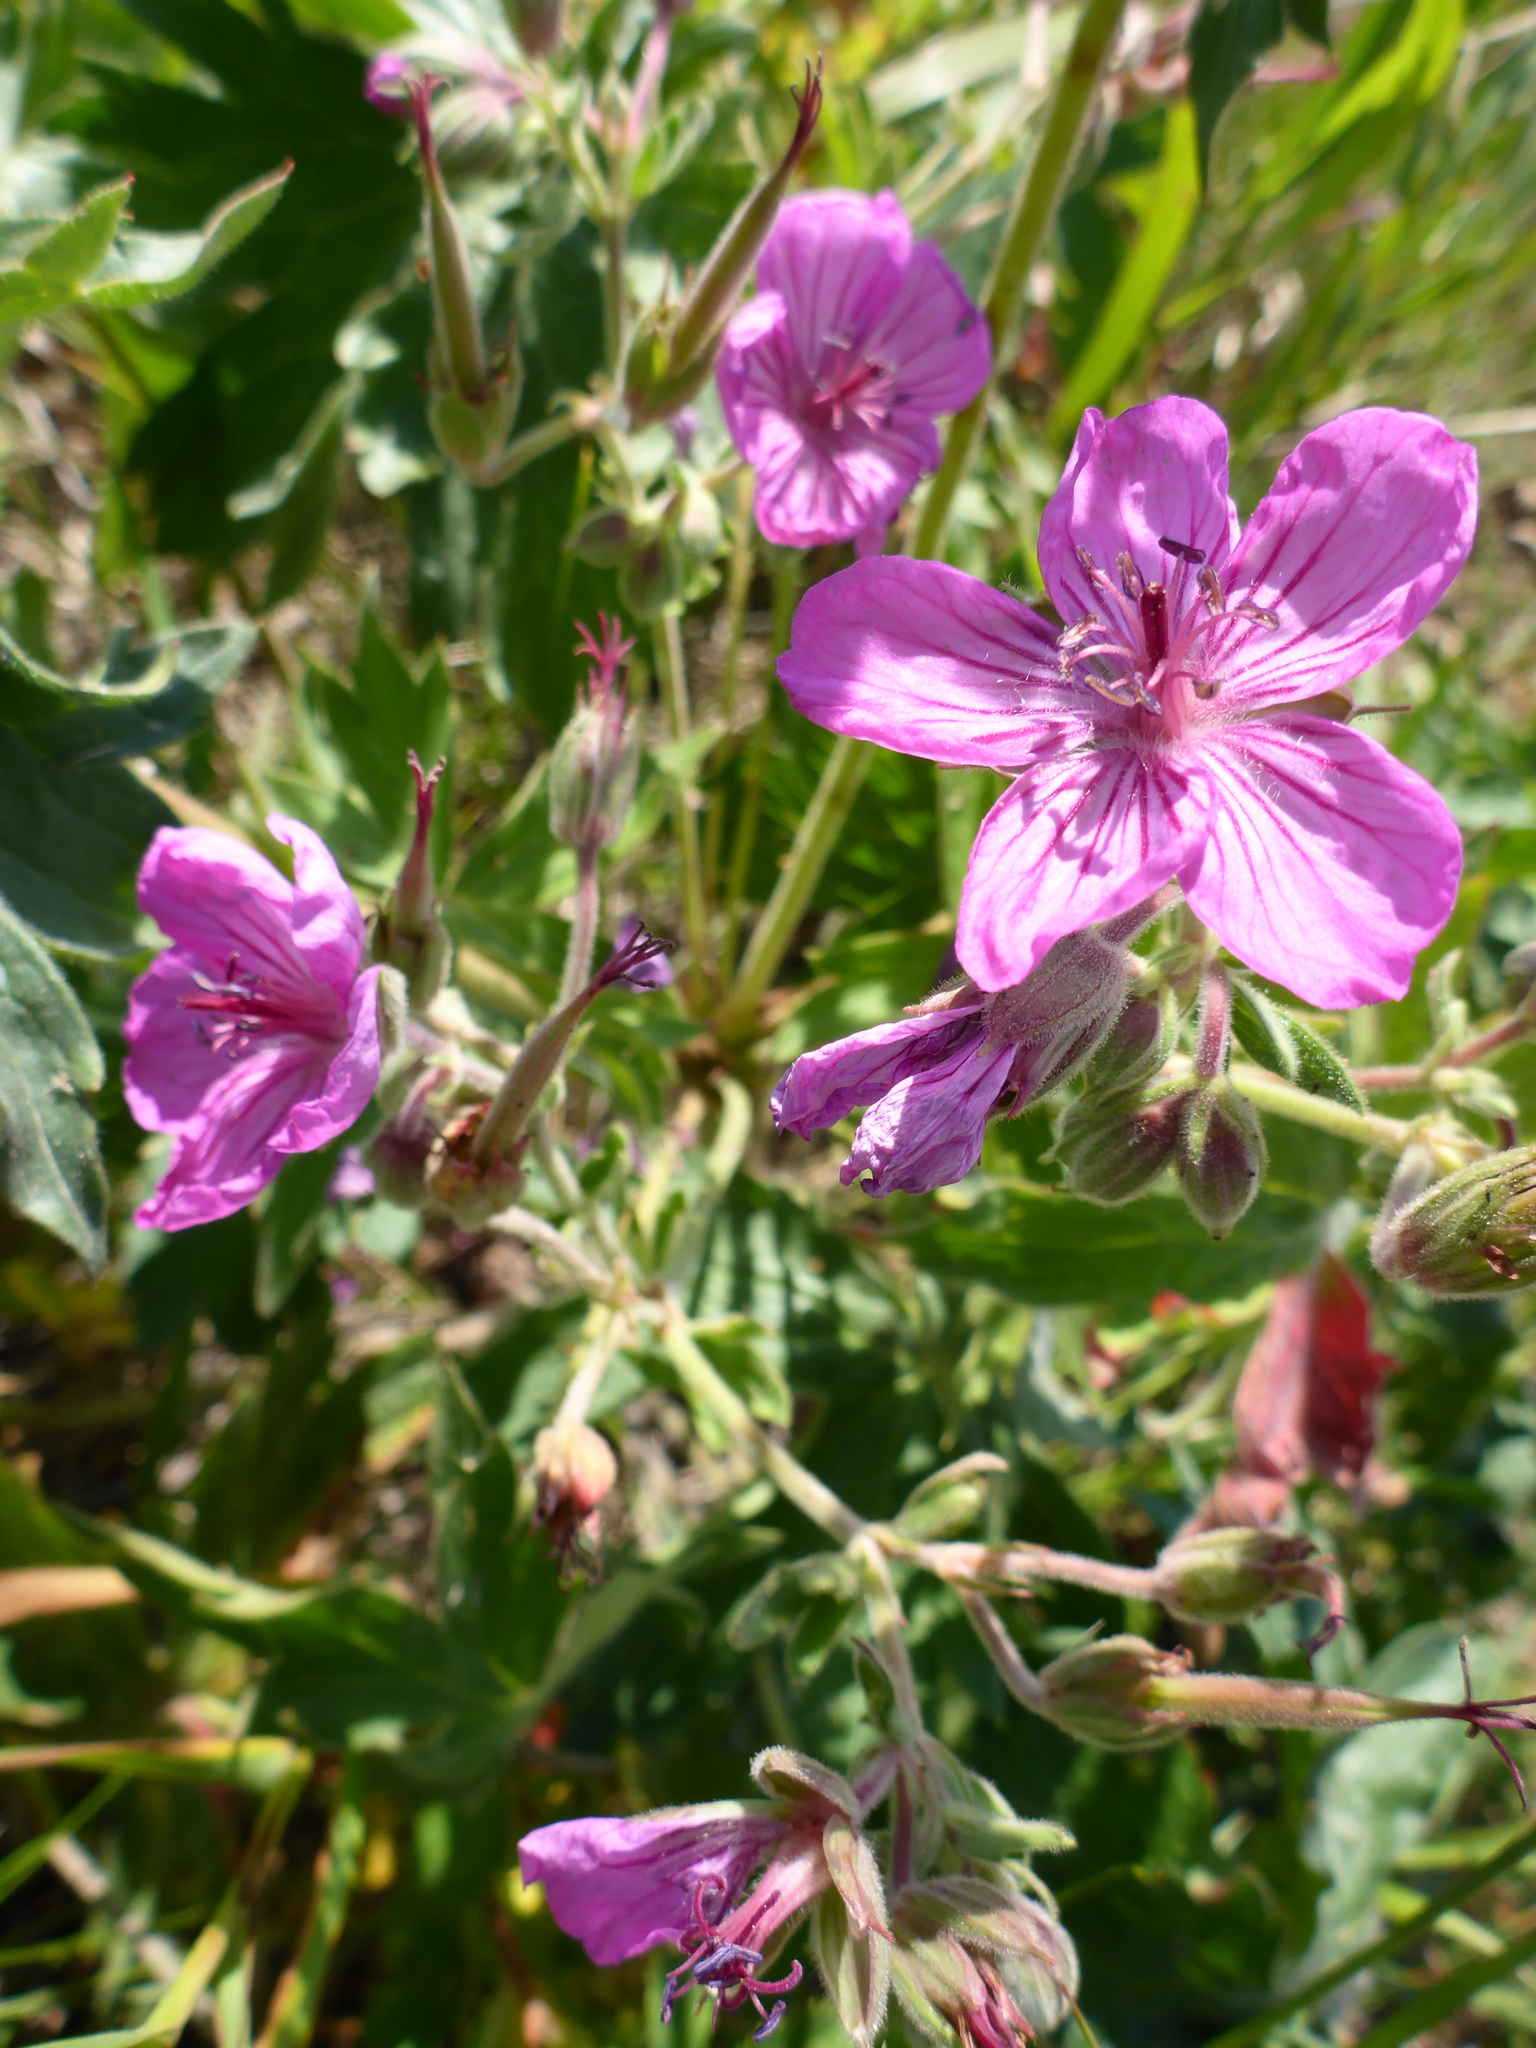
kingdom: Plantae
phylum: Tracheophyta
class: Magnoliopsida
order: Geraniales
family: Geraniaceae
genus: Geranium
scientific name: Geranium viscosissimum
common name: Purple geranium
